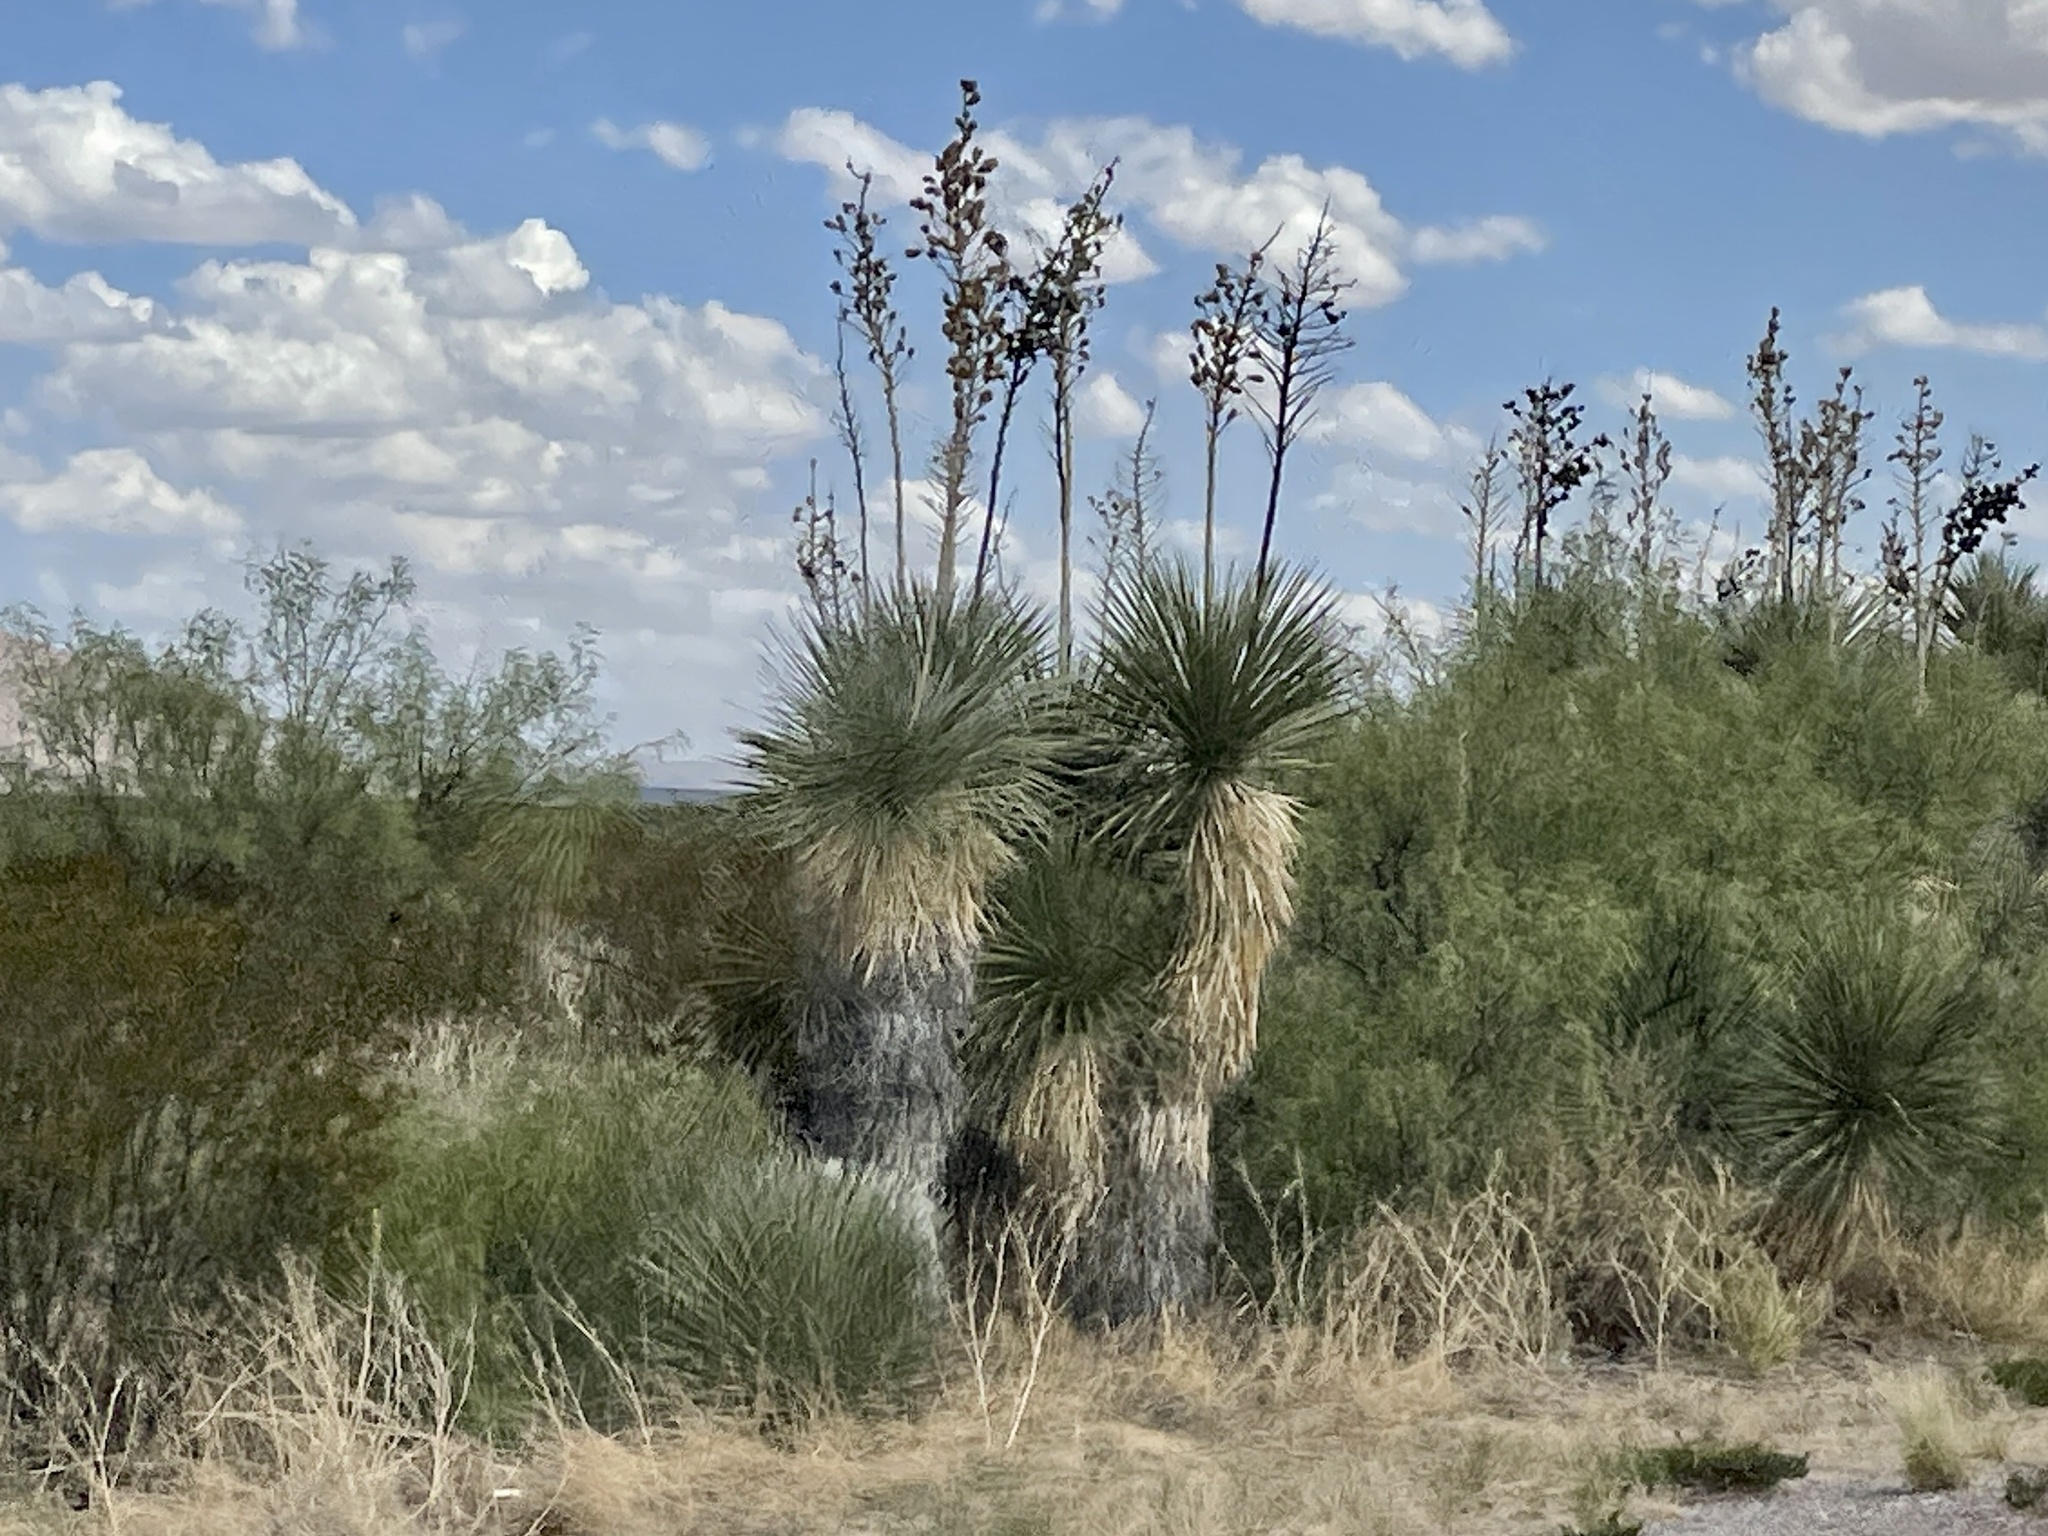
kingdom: Plantae
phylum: Tracheophyta
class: Liliopsida
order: Asparagales
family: Asparagaceae
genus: Yucca
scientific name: Yucca elata
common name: Palmella
